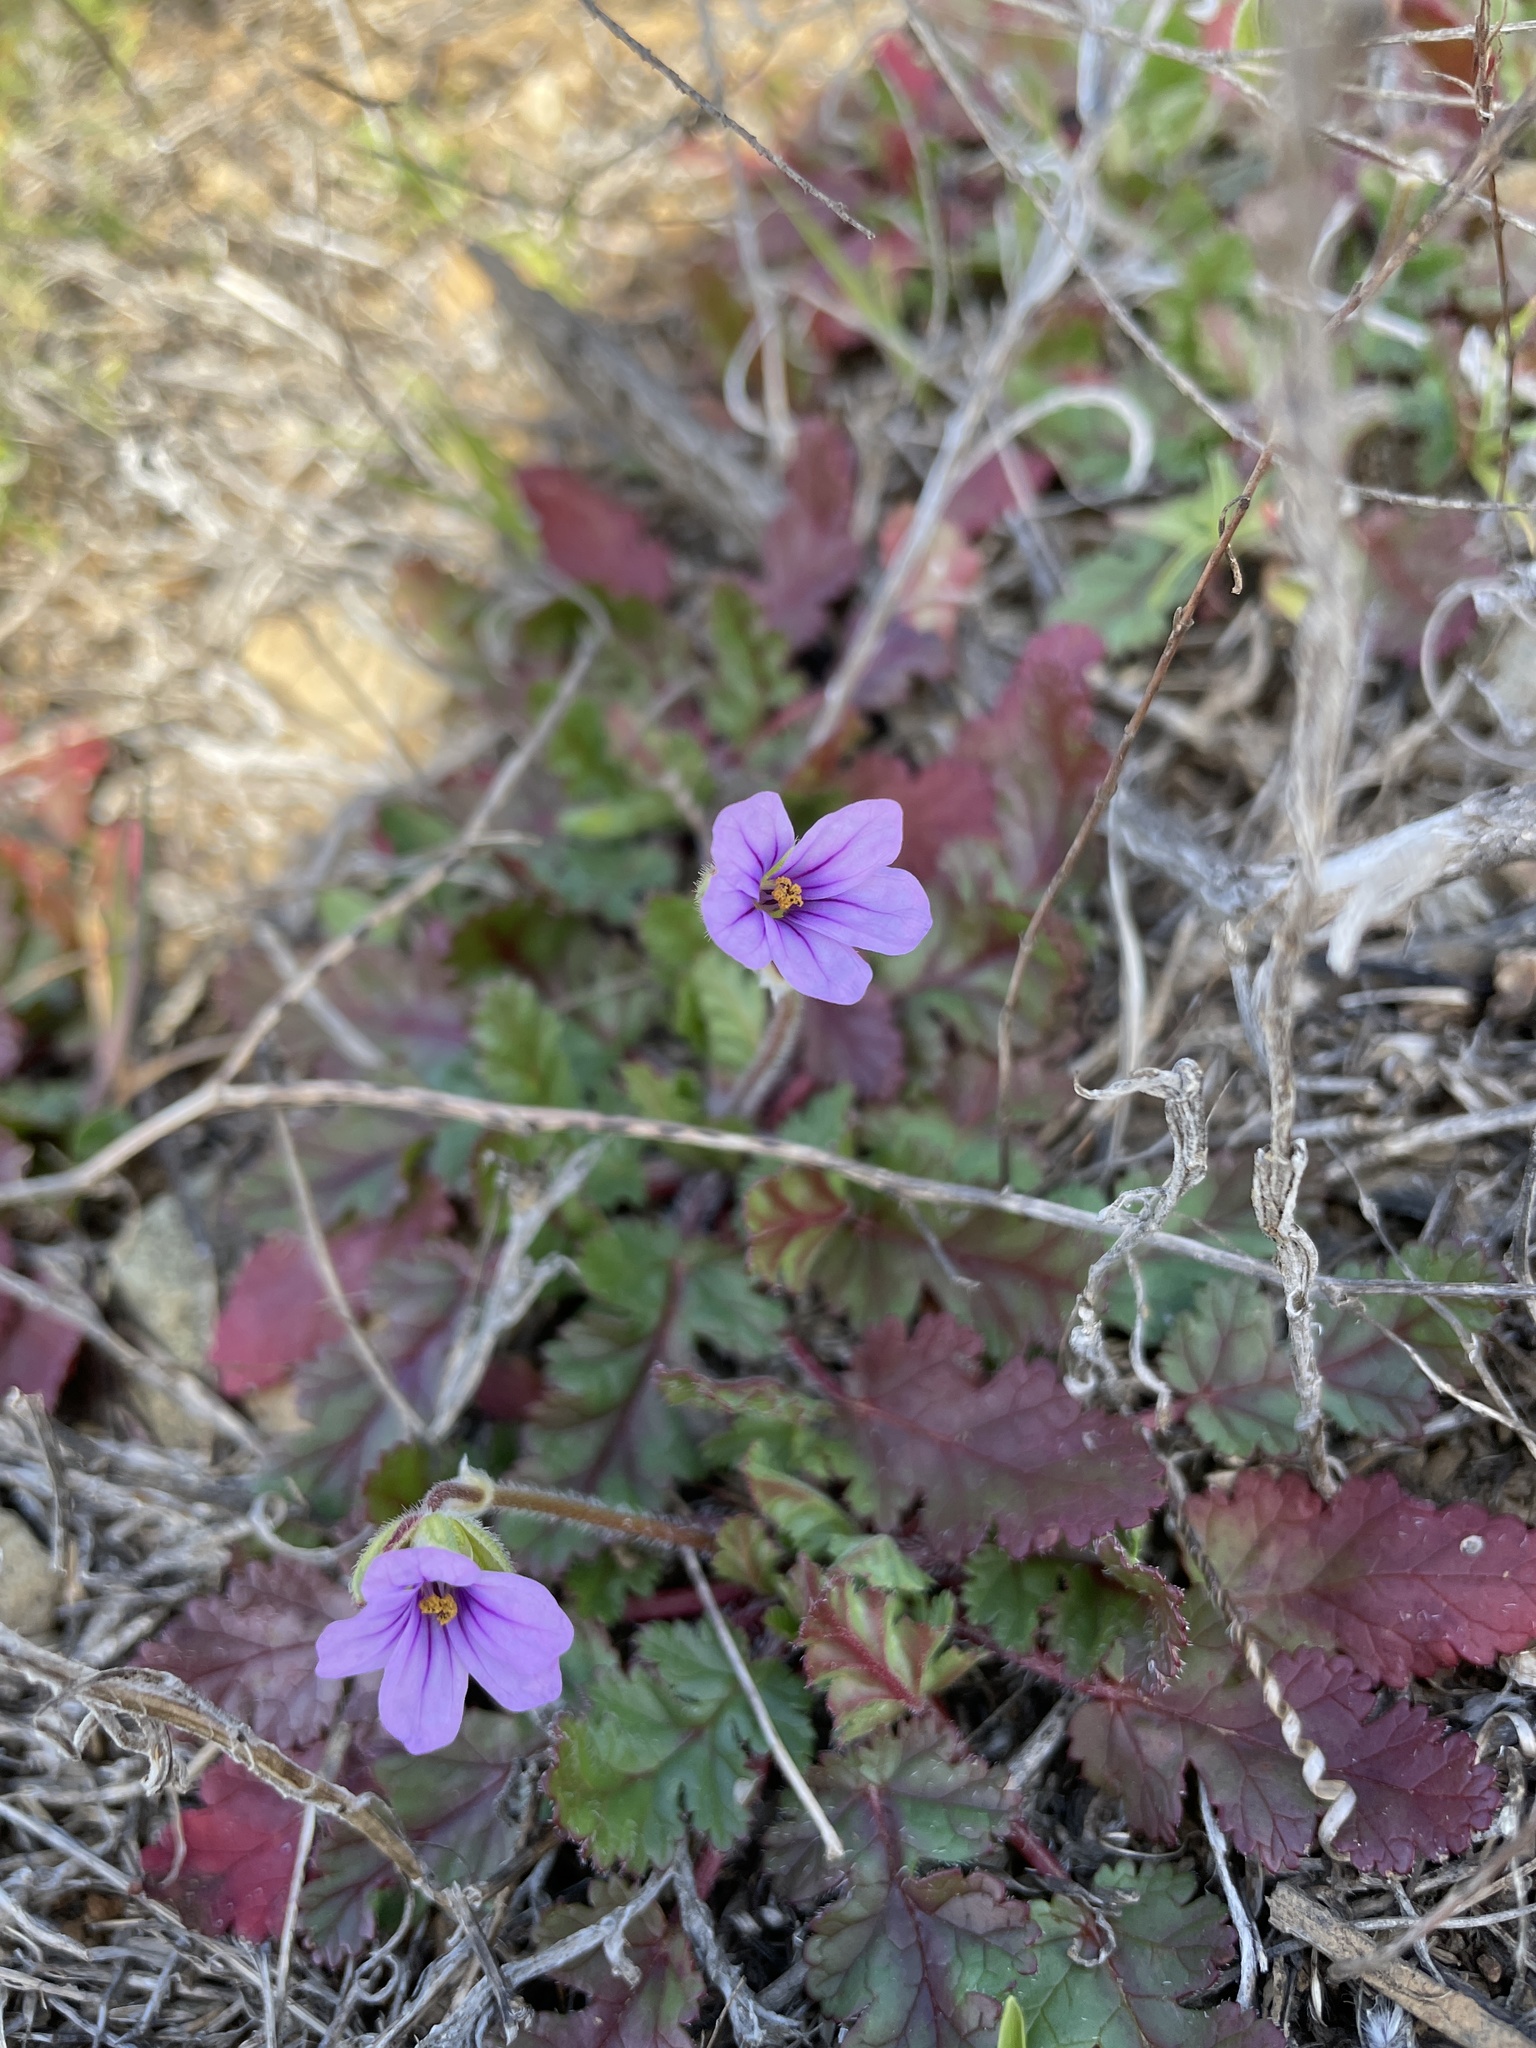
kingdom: Plantae
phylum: Tracheophyta
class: Magnoliopsida
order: Geraniales
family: Geraniaceae
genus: Erodium
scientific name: Erodium botrys
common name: Mediterranean stork's-bill
